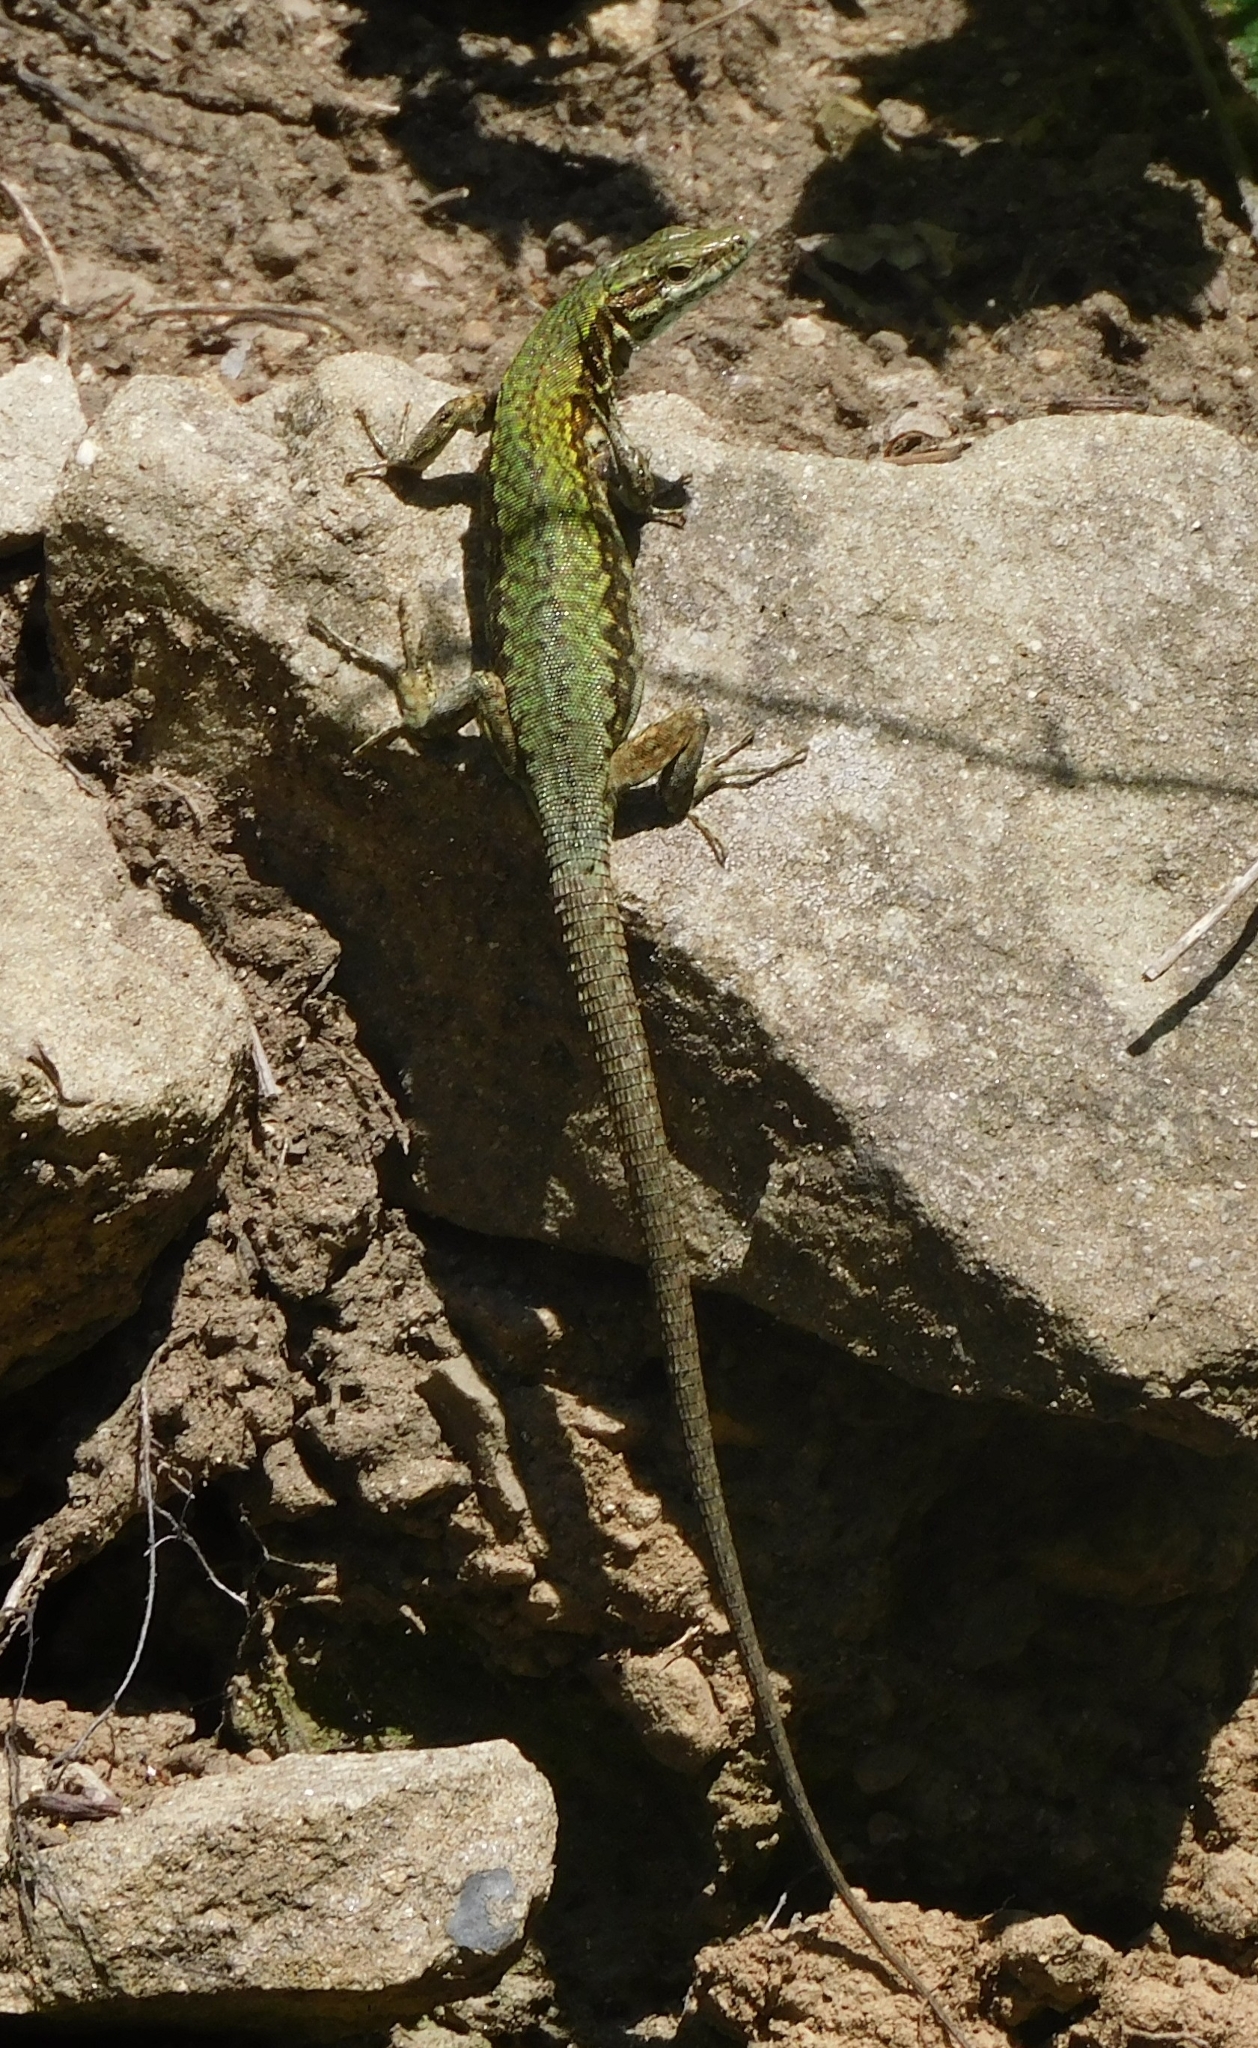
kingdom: Animalia
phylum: Chordata
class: Squamata
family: Lacertidae
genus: Podarcis
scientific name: Podarcis muralis
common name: Common wall lizard
